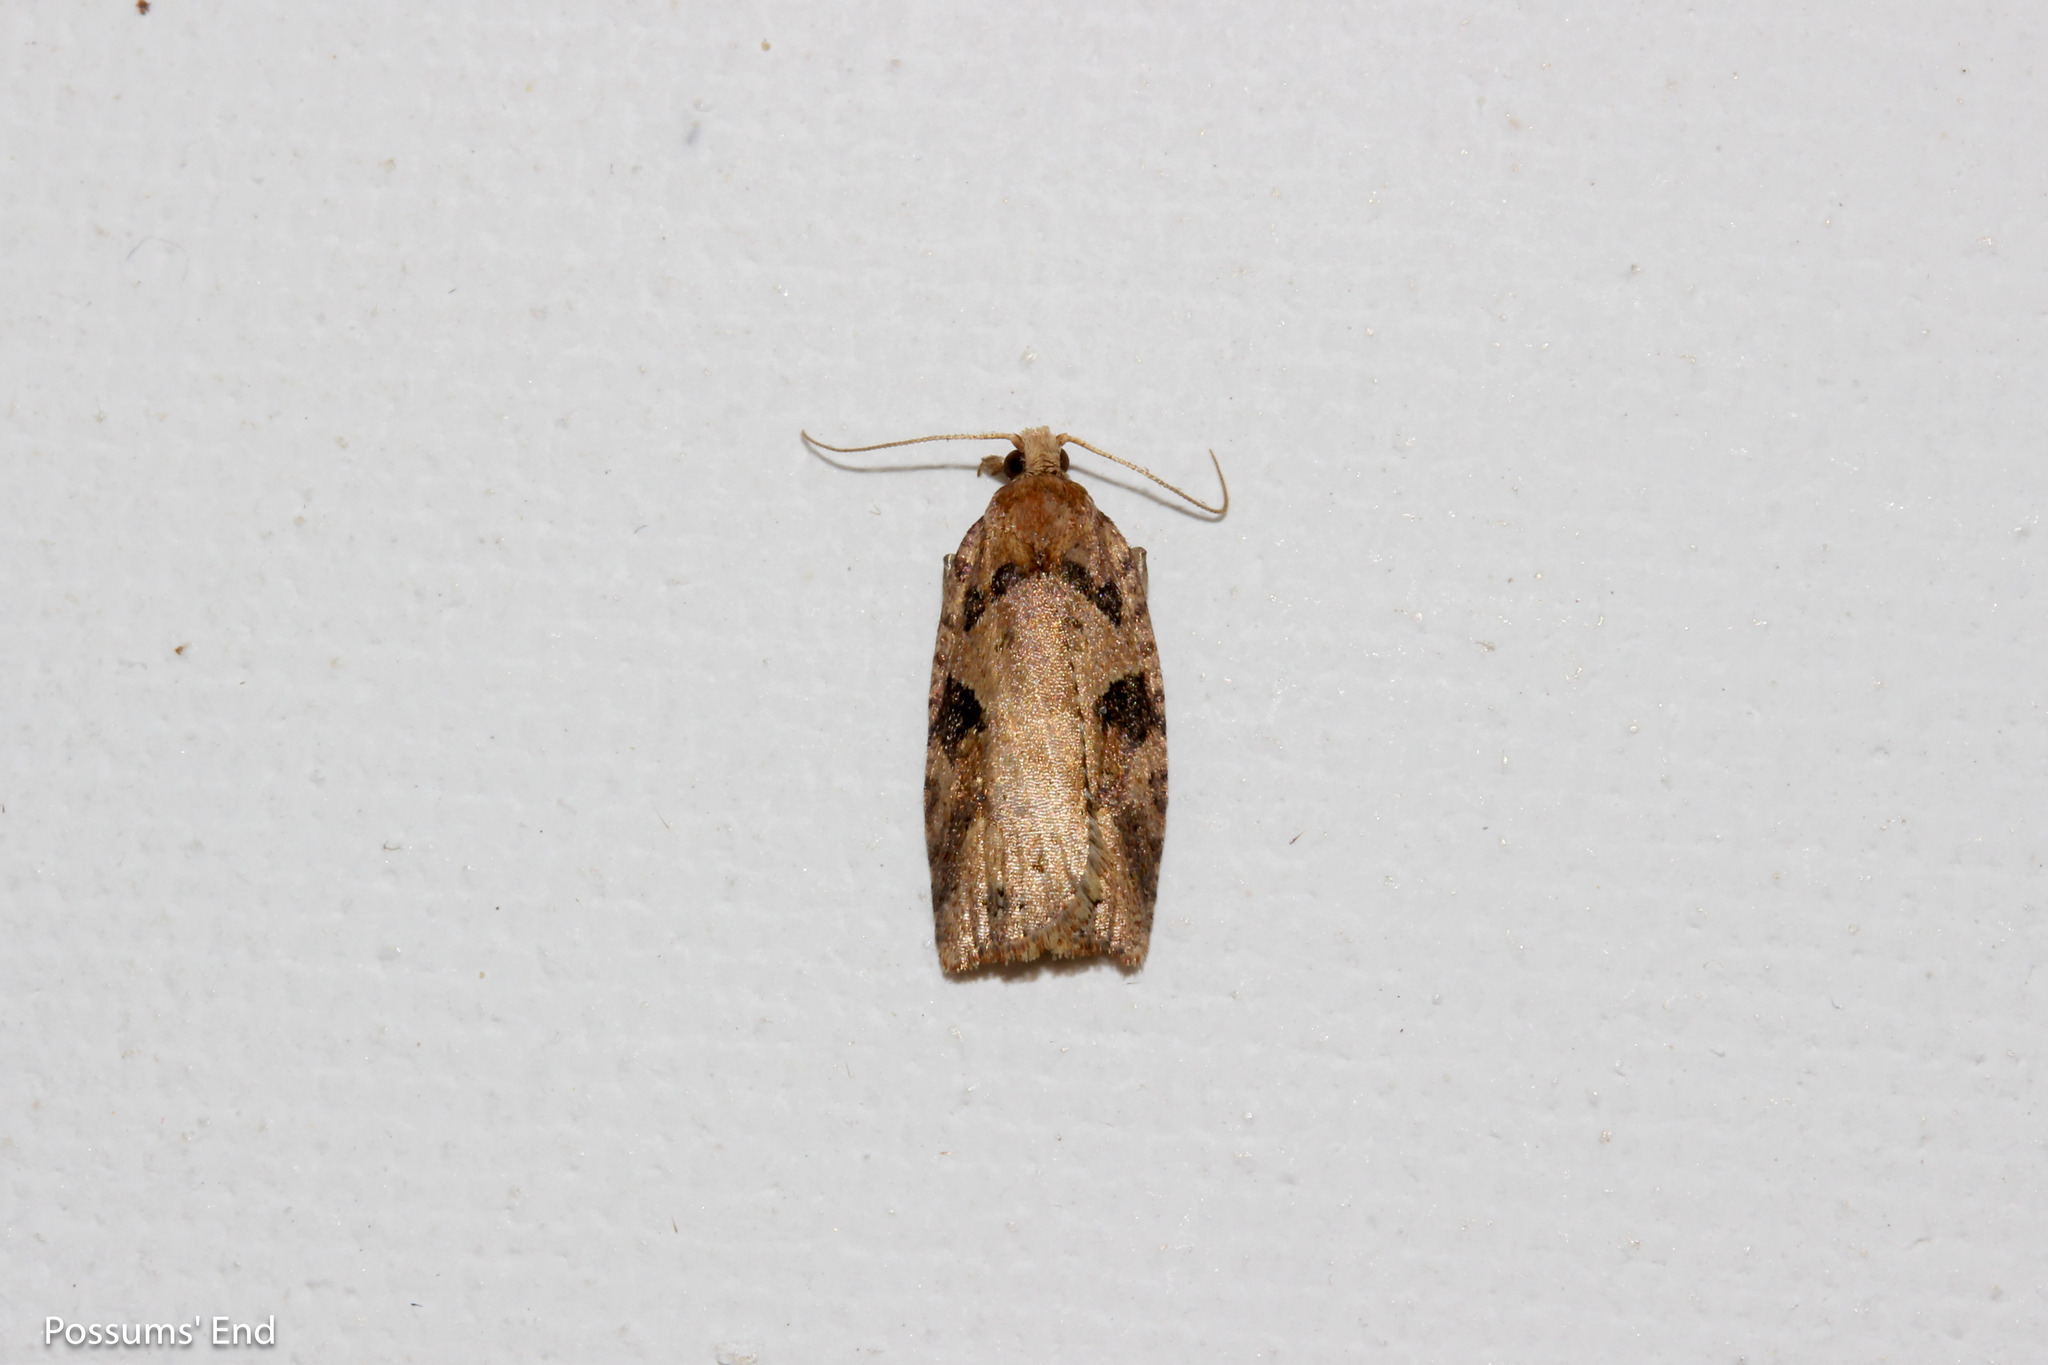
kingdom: Animalia
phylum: Arthropoda
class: Insecta
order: Lepidoptera
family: Tortricidae
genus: Ctenopseustis
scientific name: Ctenopseustis obliquana
